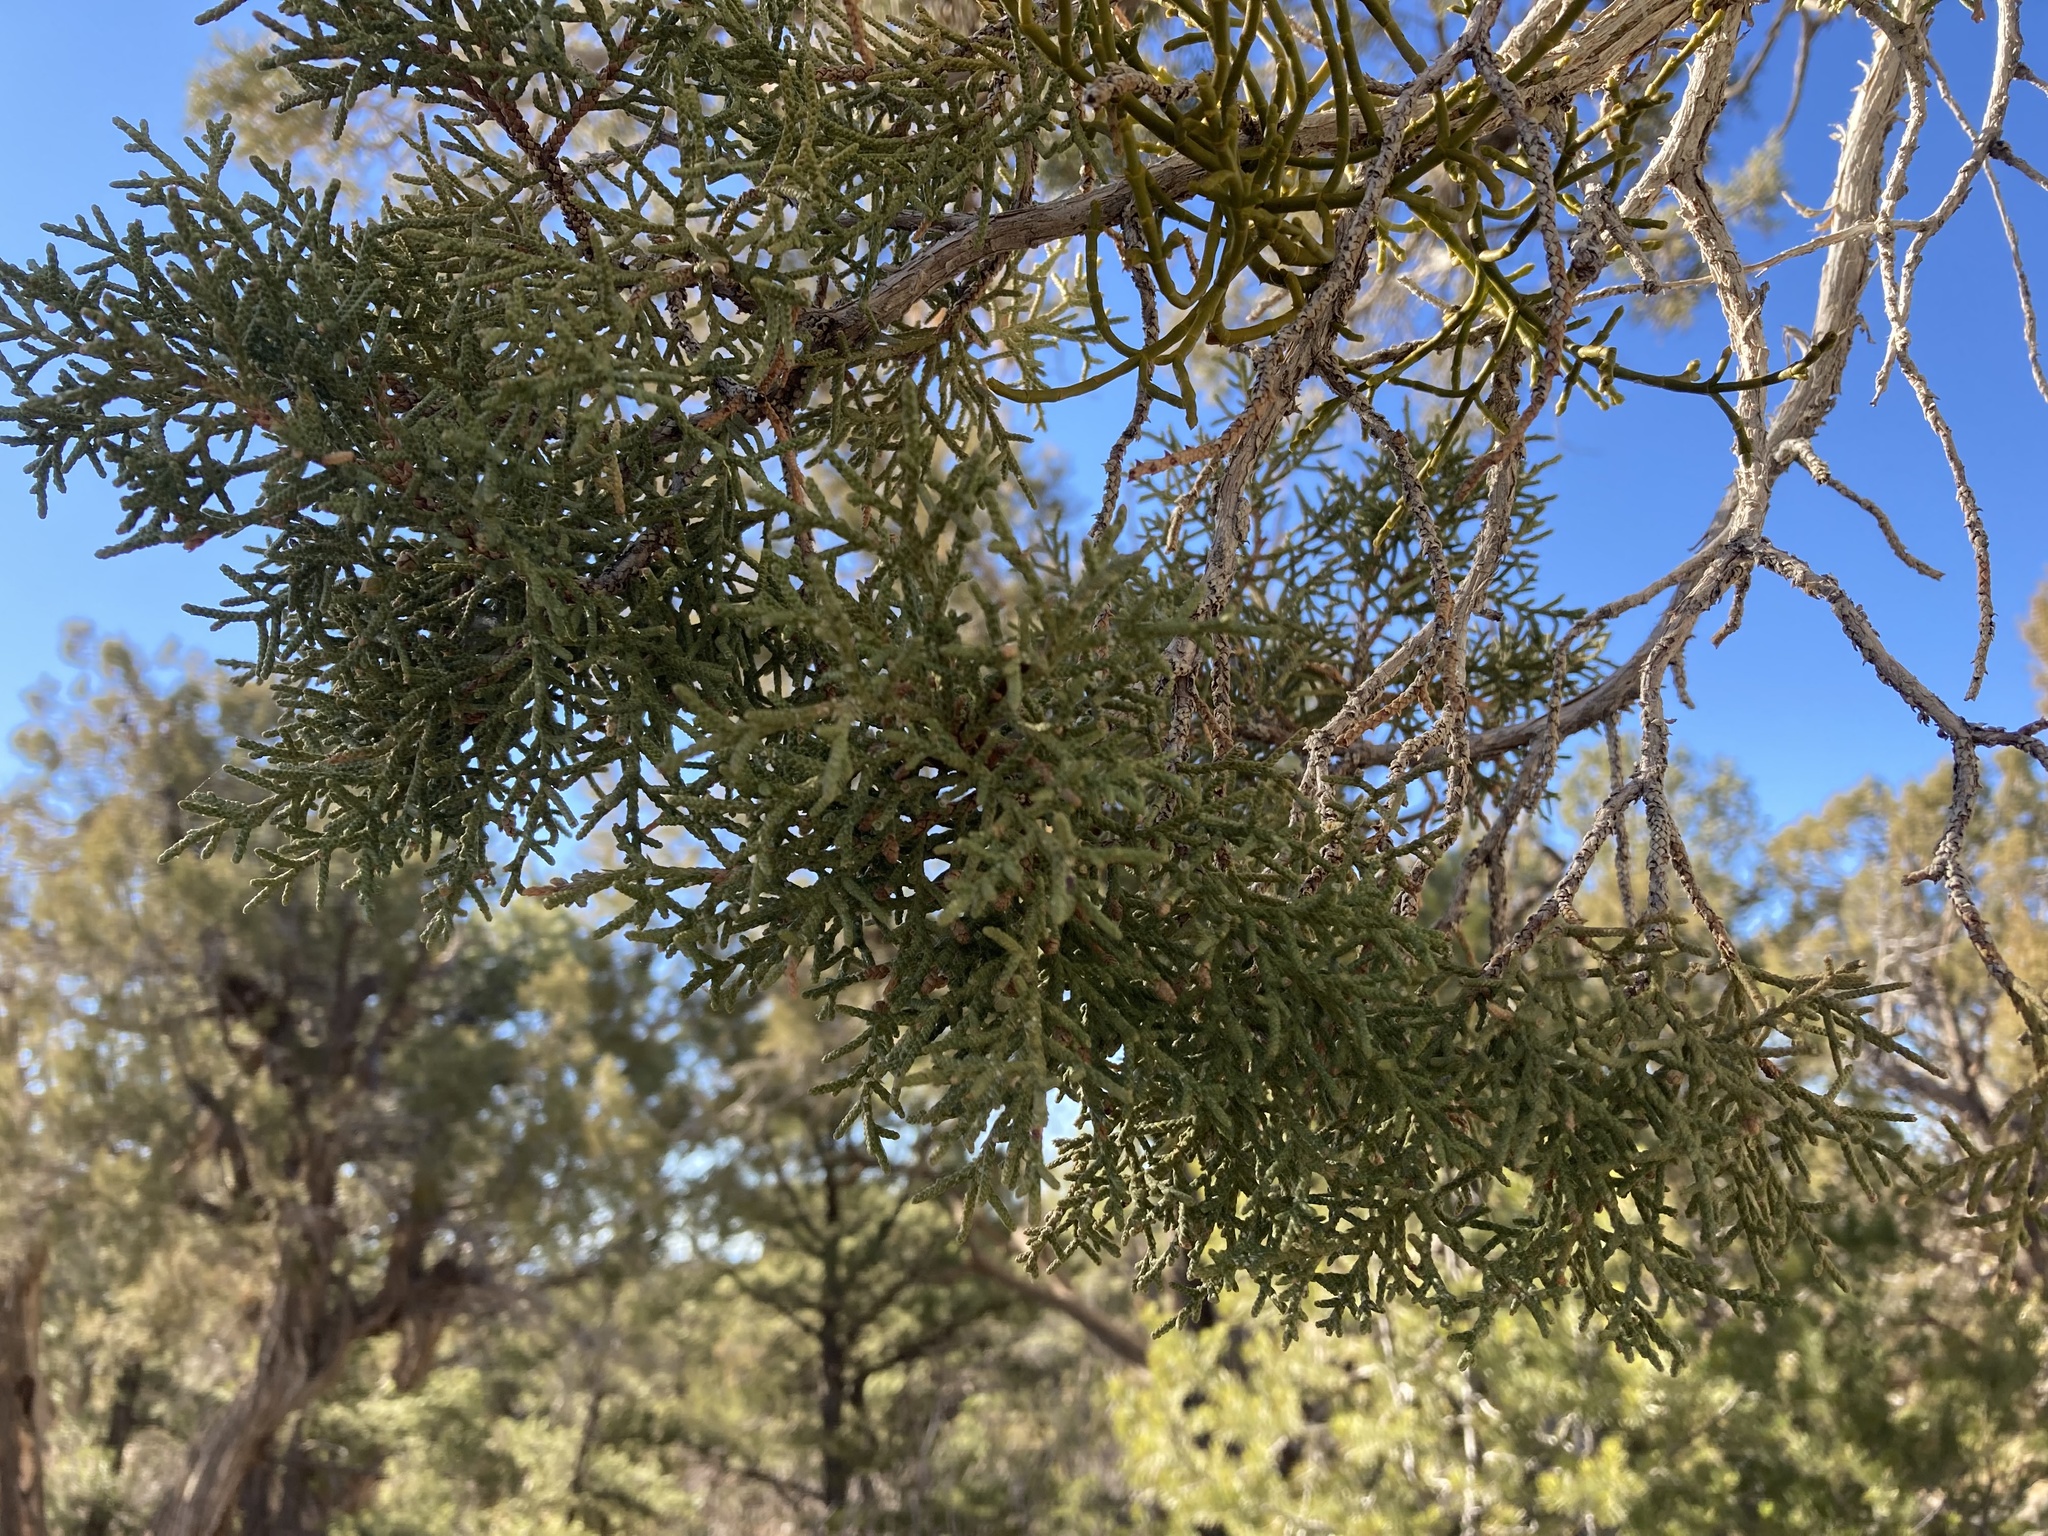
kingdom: Plantae
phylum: Tracheophyta
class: Pinopsida
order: Pinales
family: Cupressaceae
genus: Juniperus
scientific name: Juniperus osteosperma
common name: Utah juniper
